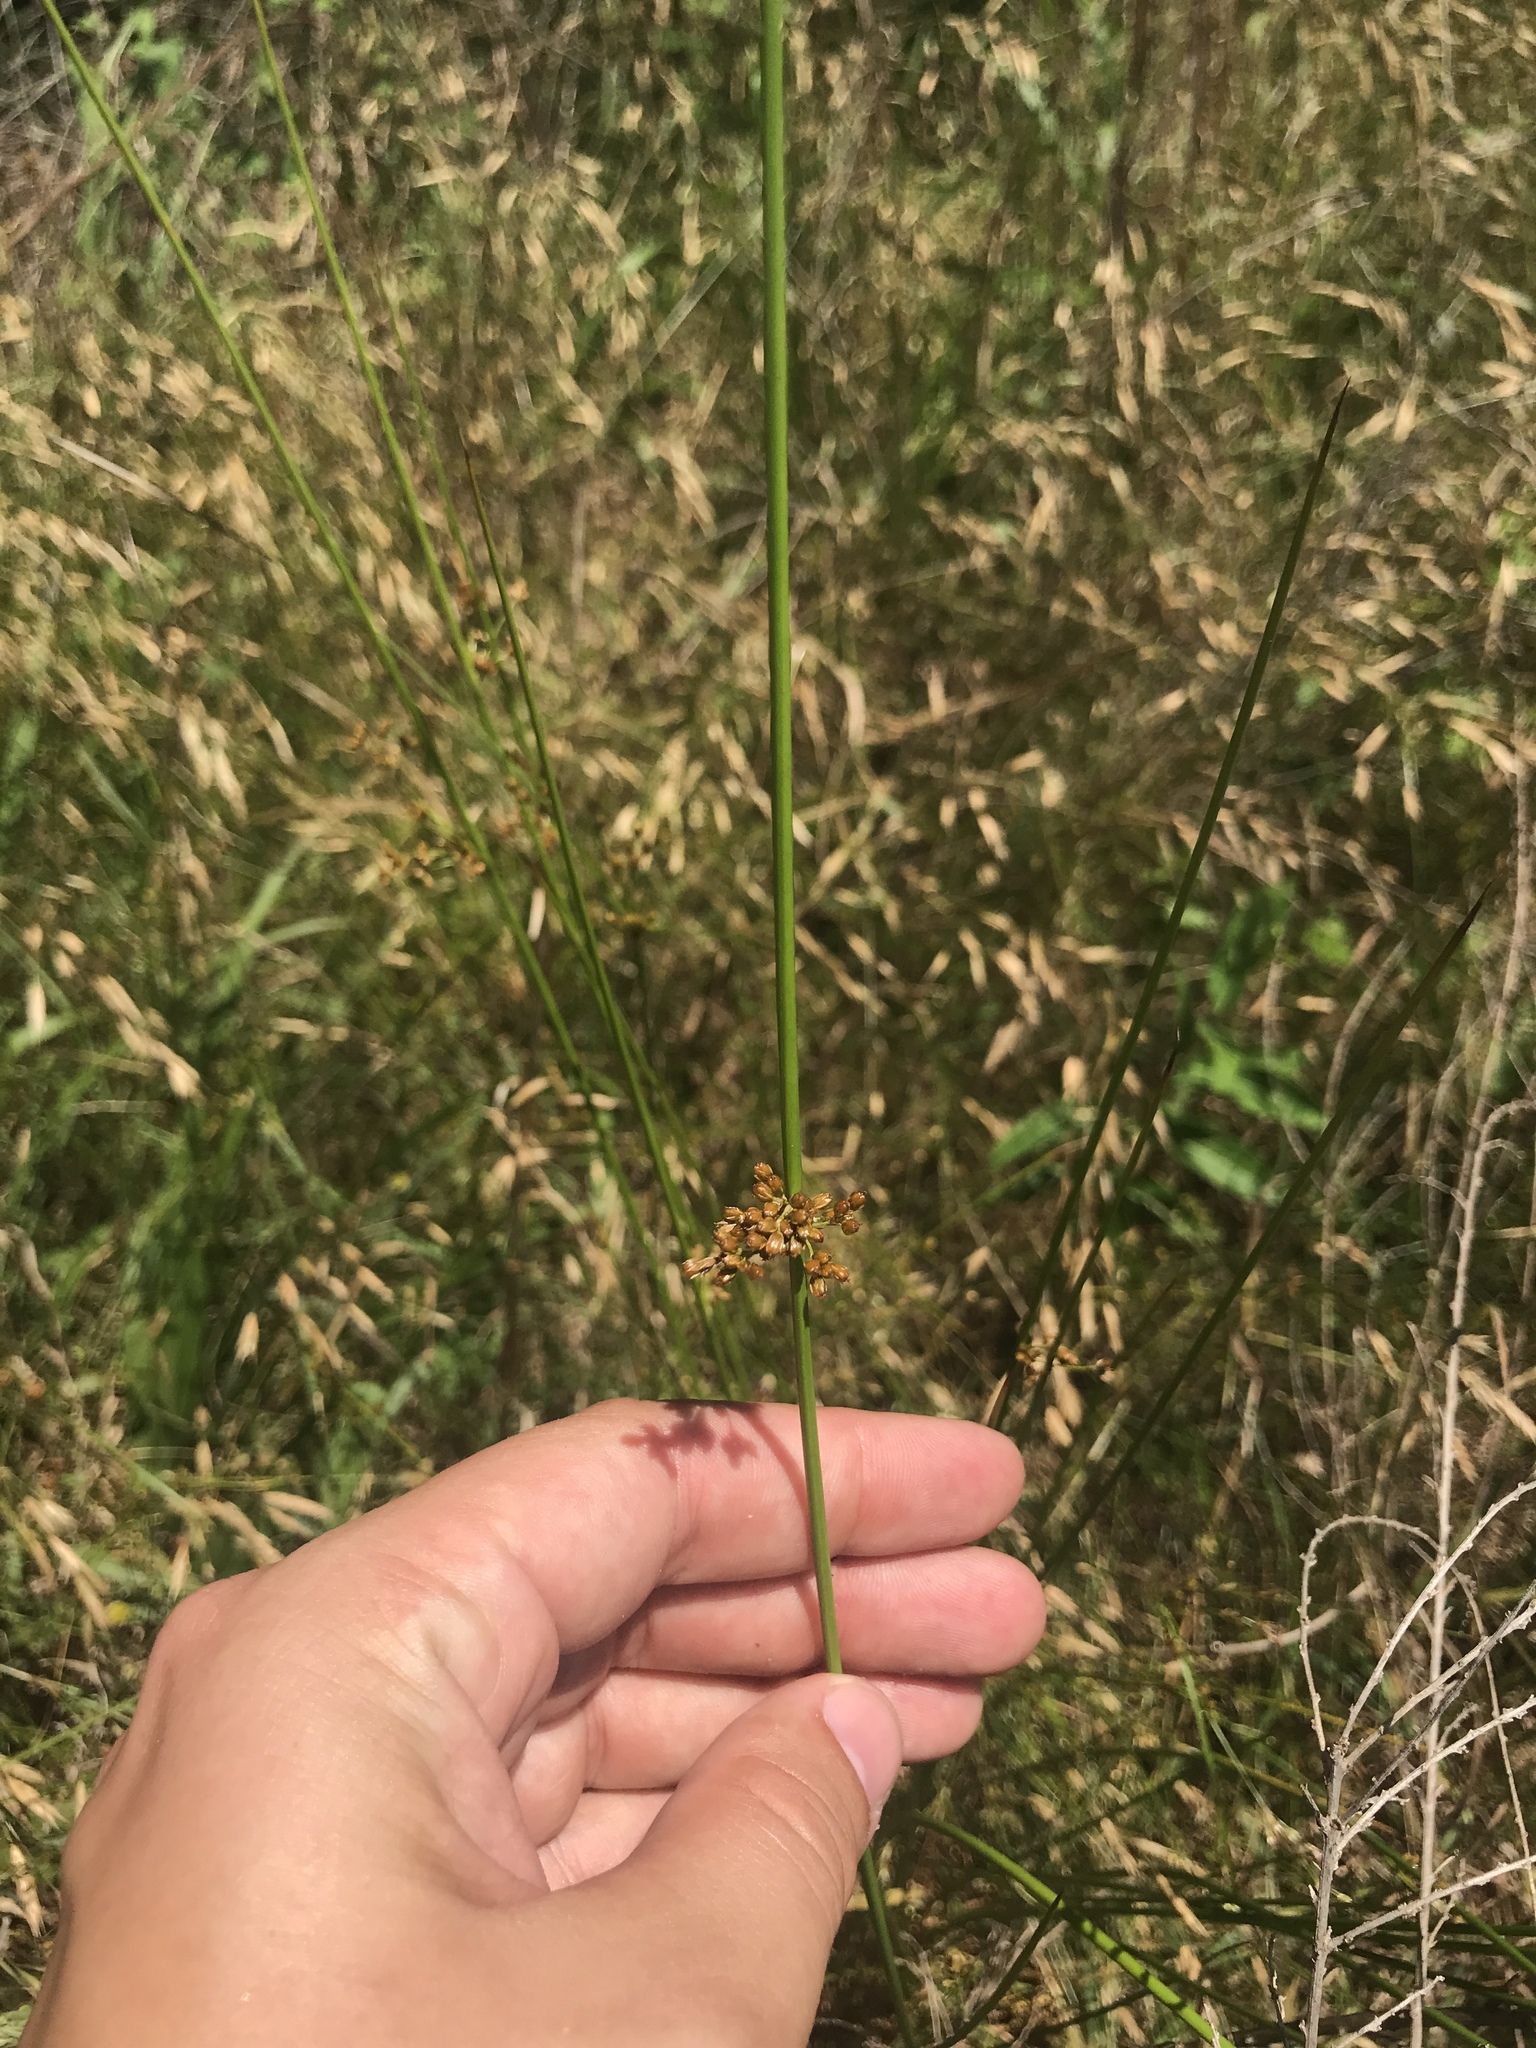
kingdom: Plantae
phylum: Tracheophyta
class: Liliopsida
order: Poales
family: Juncaceae
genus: Juncus
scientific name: Juncus effusus
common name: Soft rush
